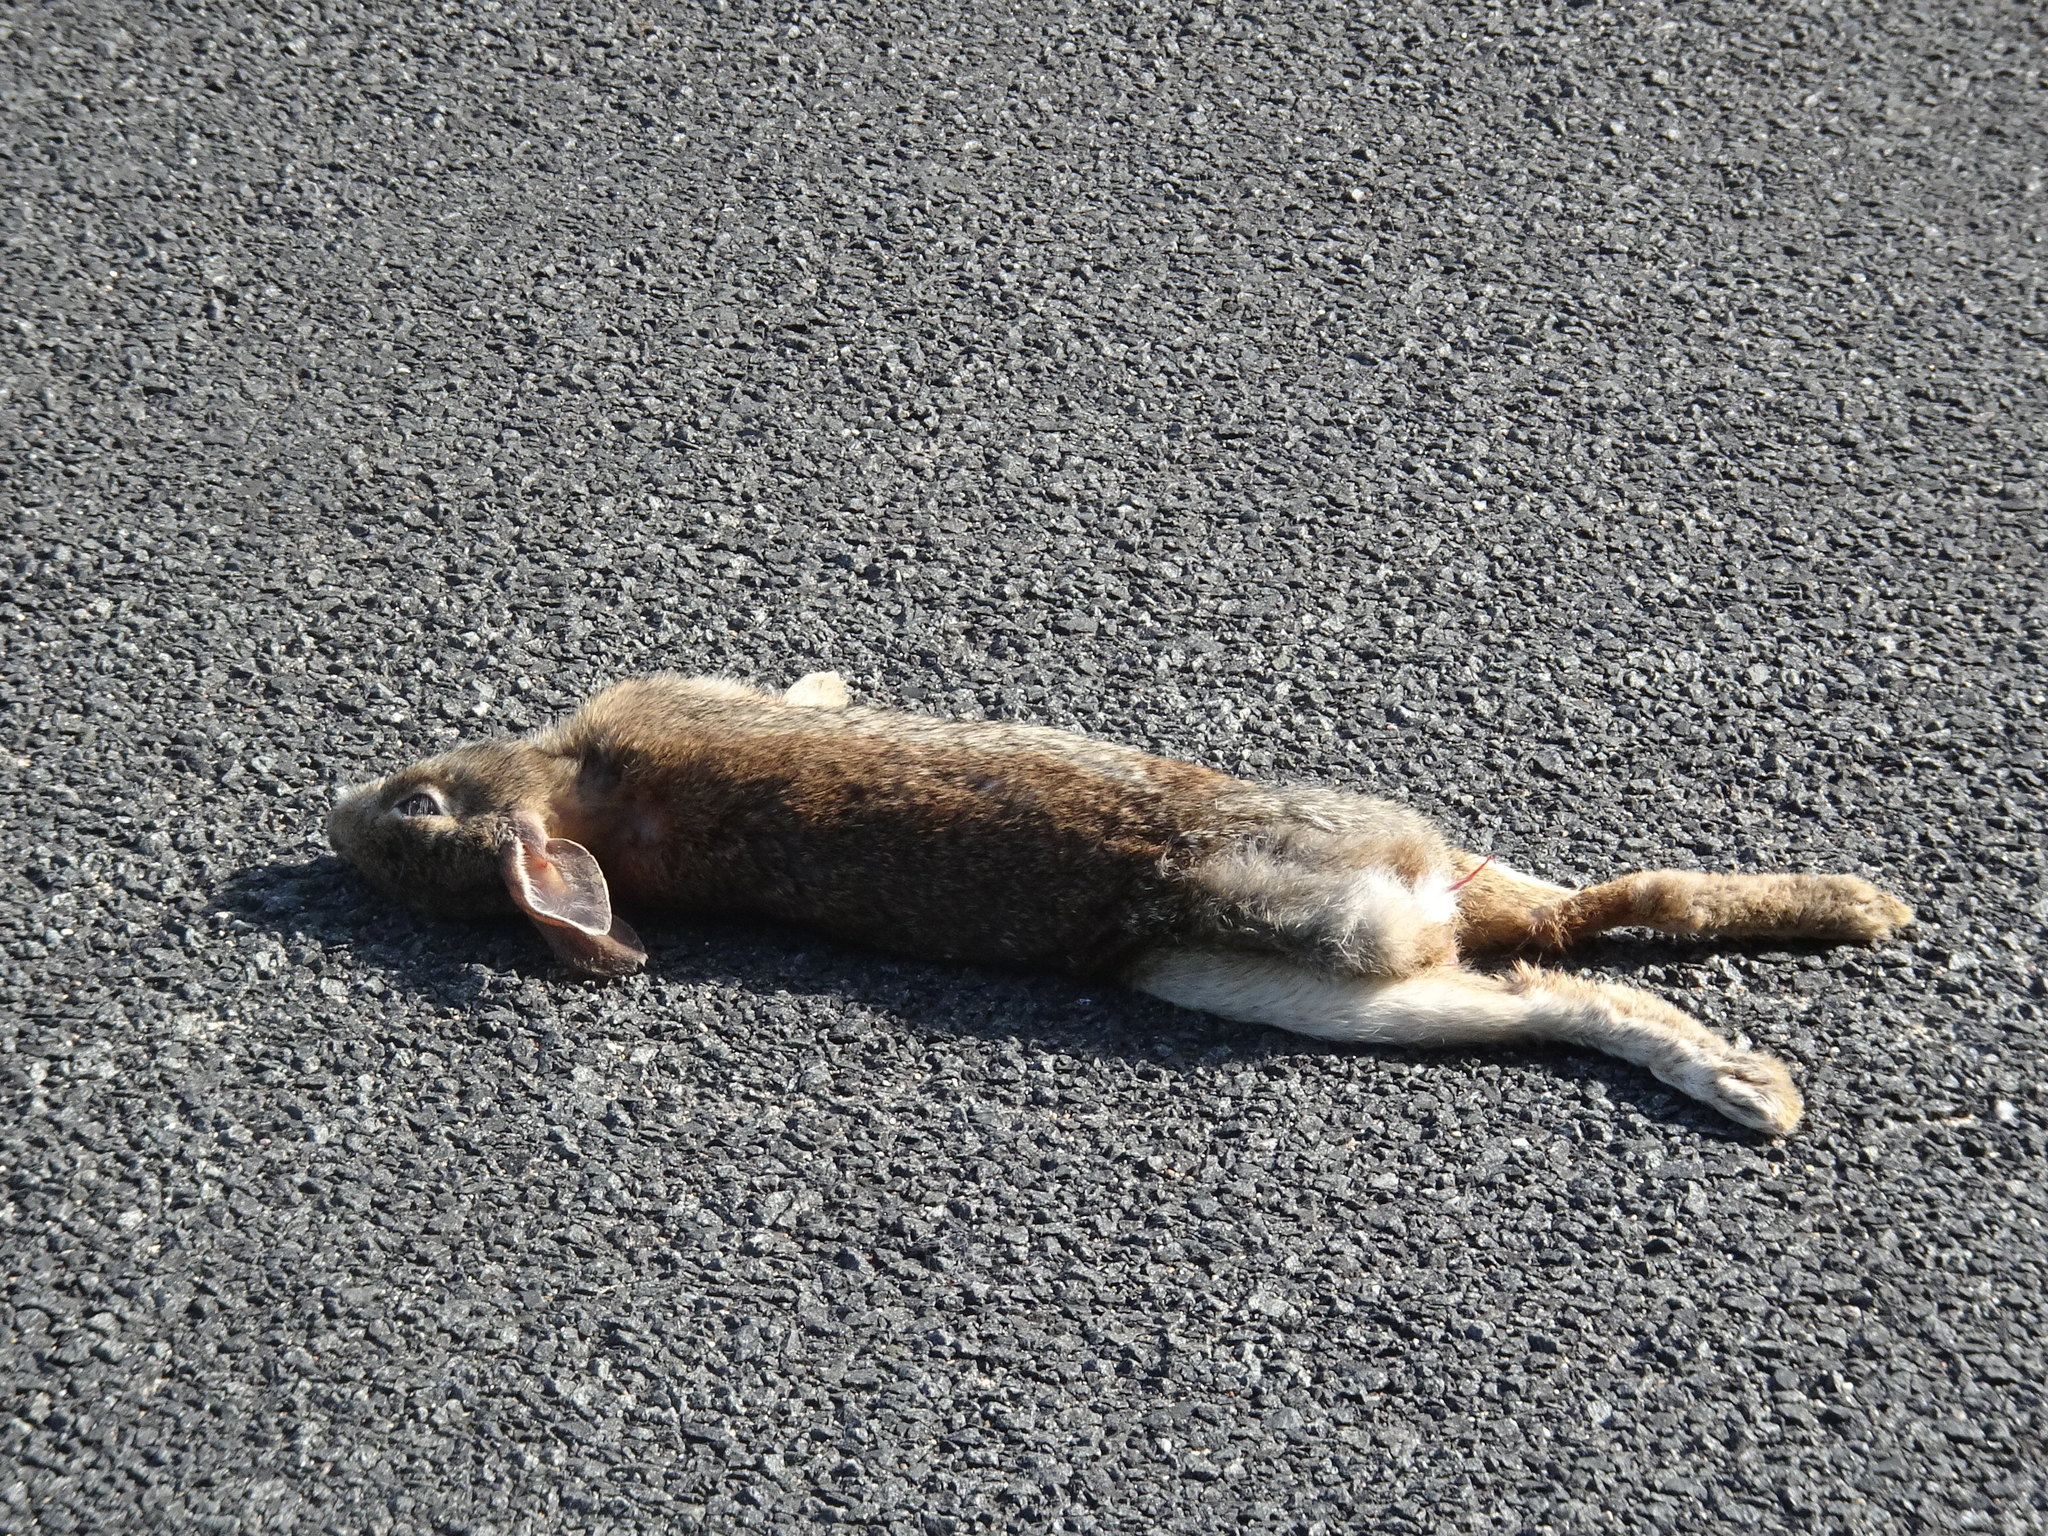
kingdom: Animalia
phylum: Chordata
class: Mammalia
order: Lagomorpha
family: Leporidae
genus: Sylvilagus
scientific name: Sylvilagus floridanus
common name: Eastern cottontail
